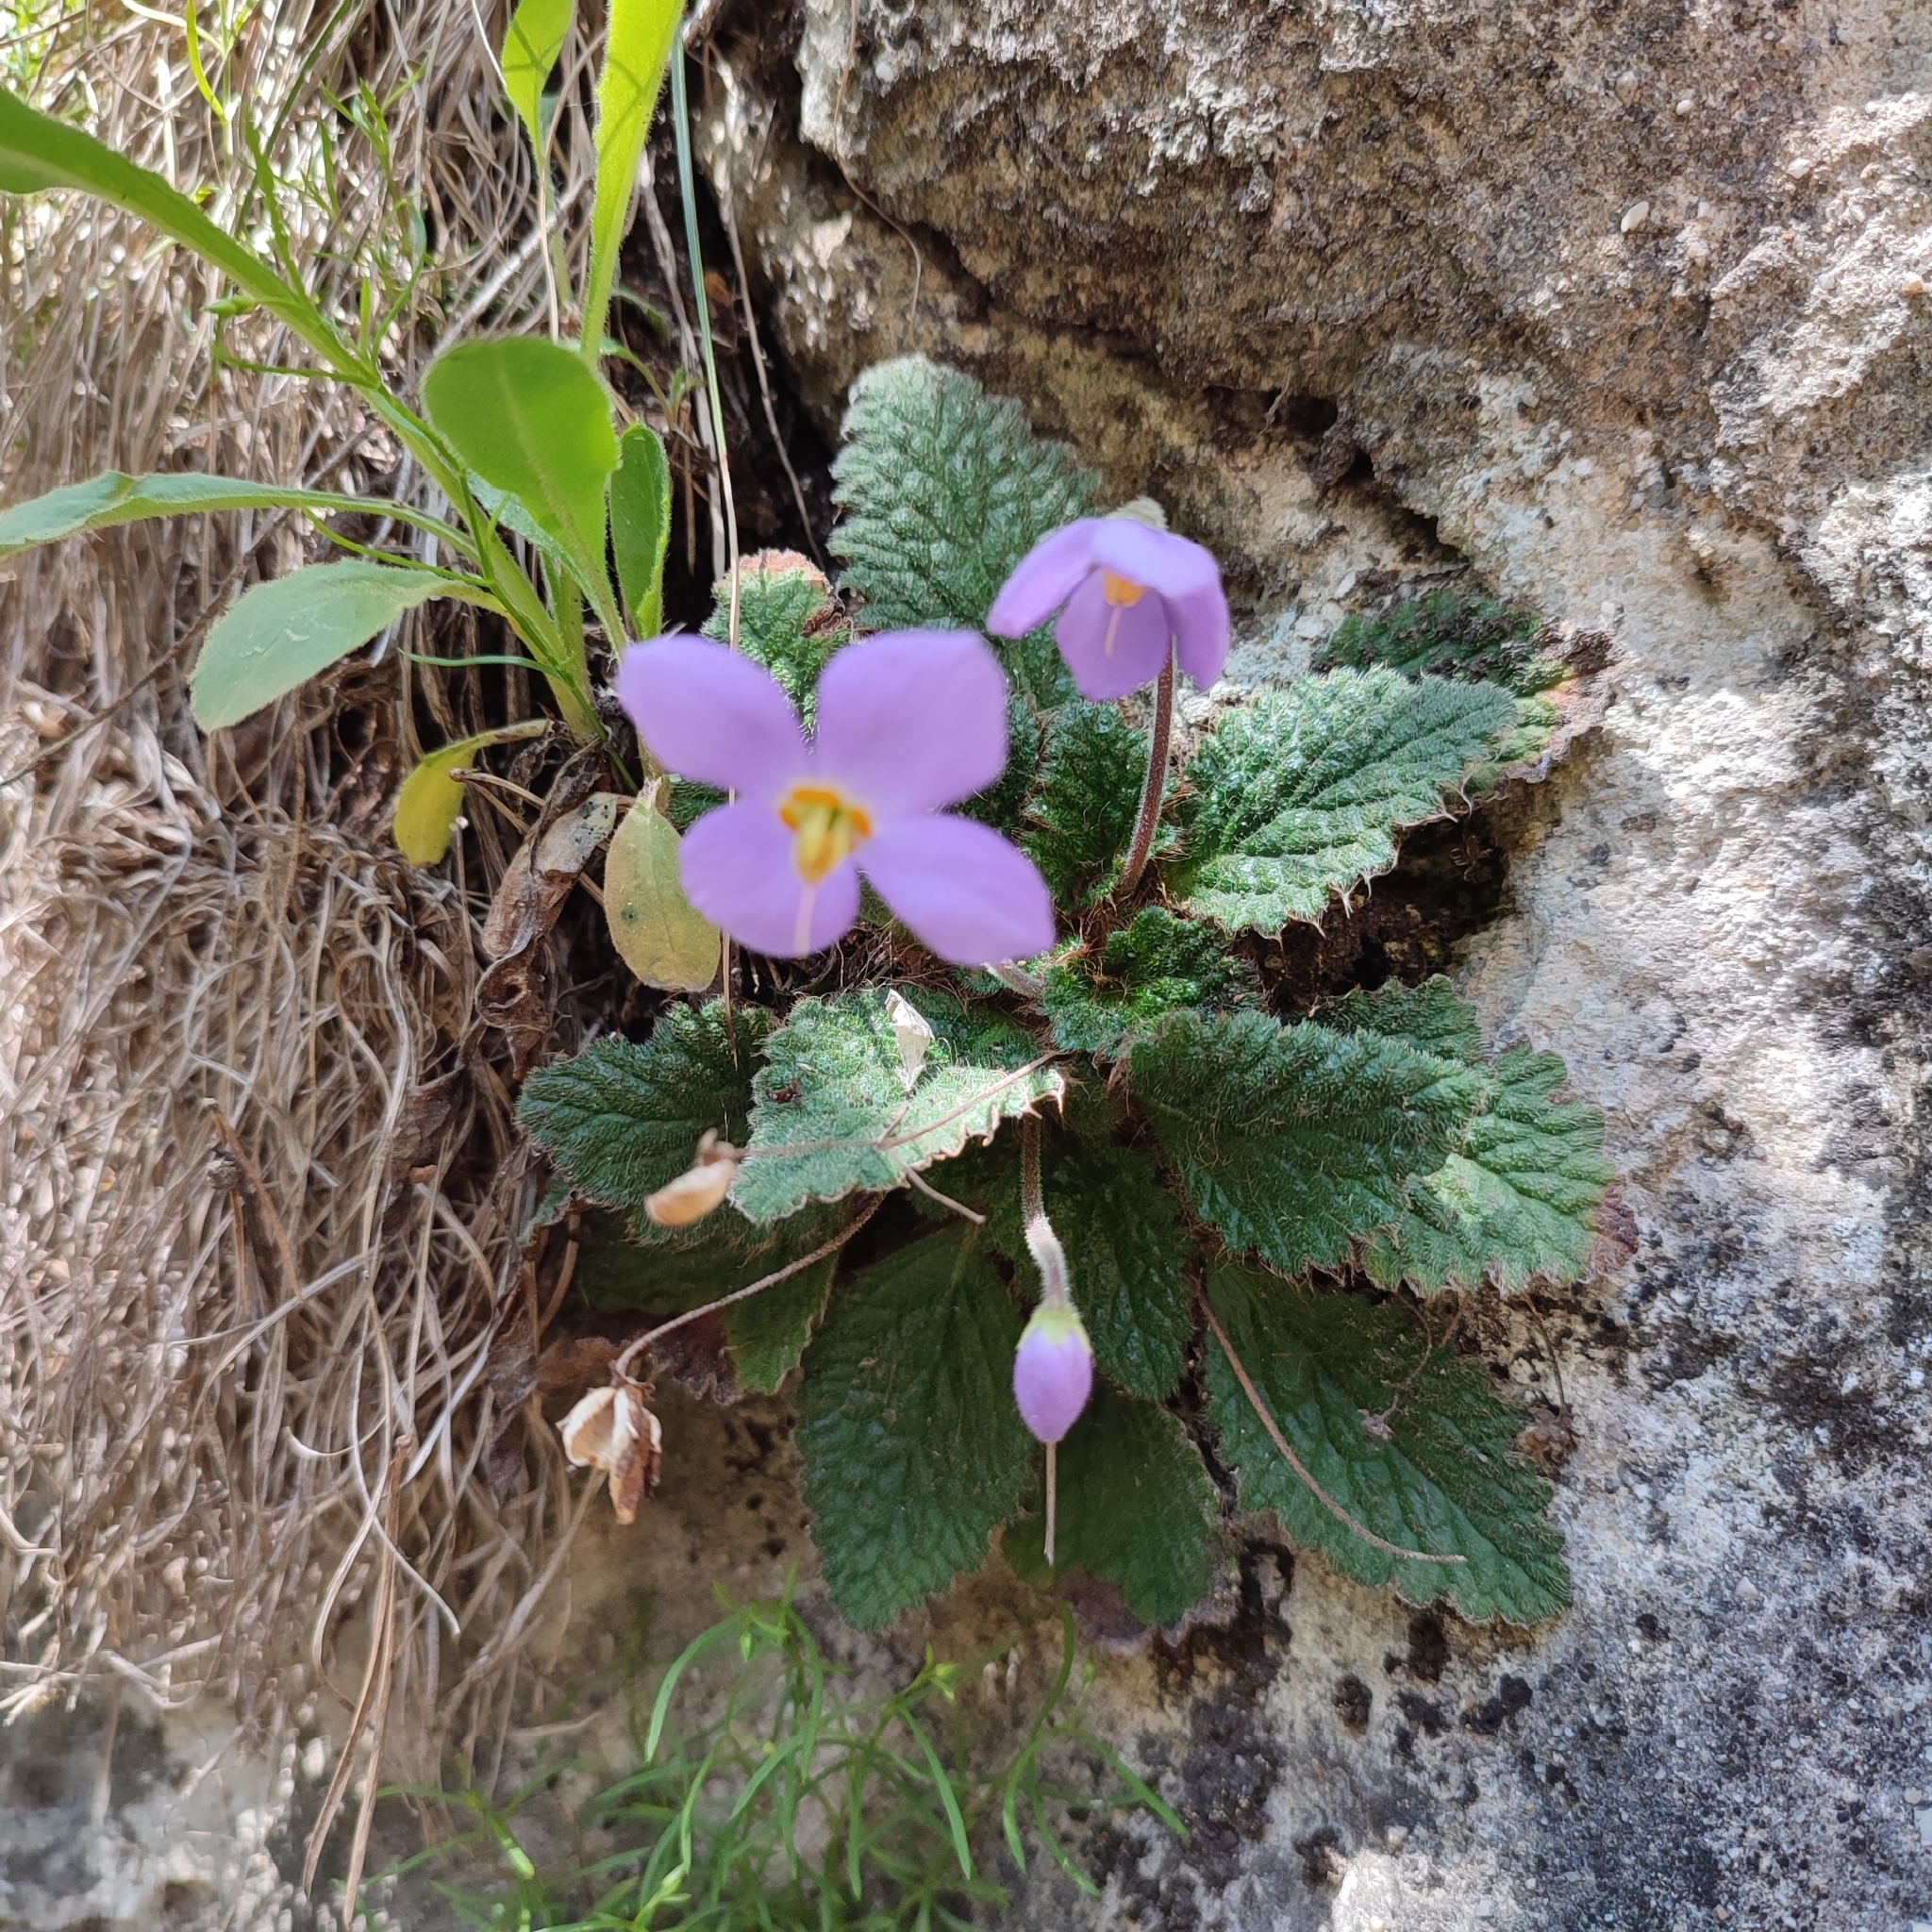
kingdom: Plantae
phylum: Tracheophyta
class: Magnoliopsida
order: Lamiales
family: Gesneriaceae
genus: Ramonda
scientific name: Ramonda myconi
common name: Pyrenean-violet
